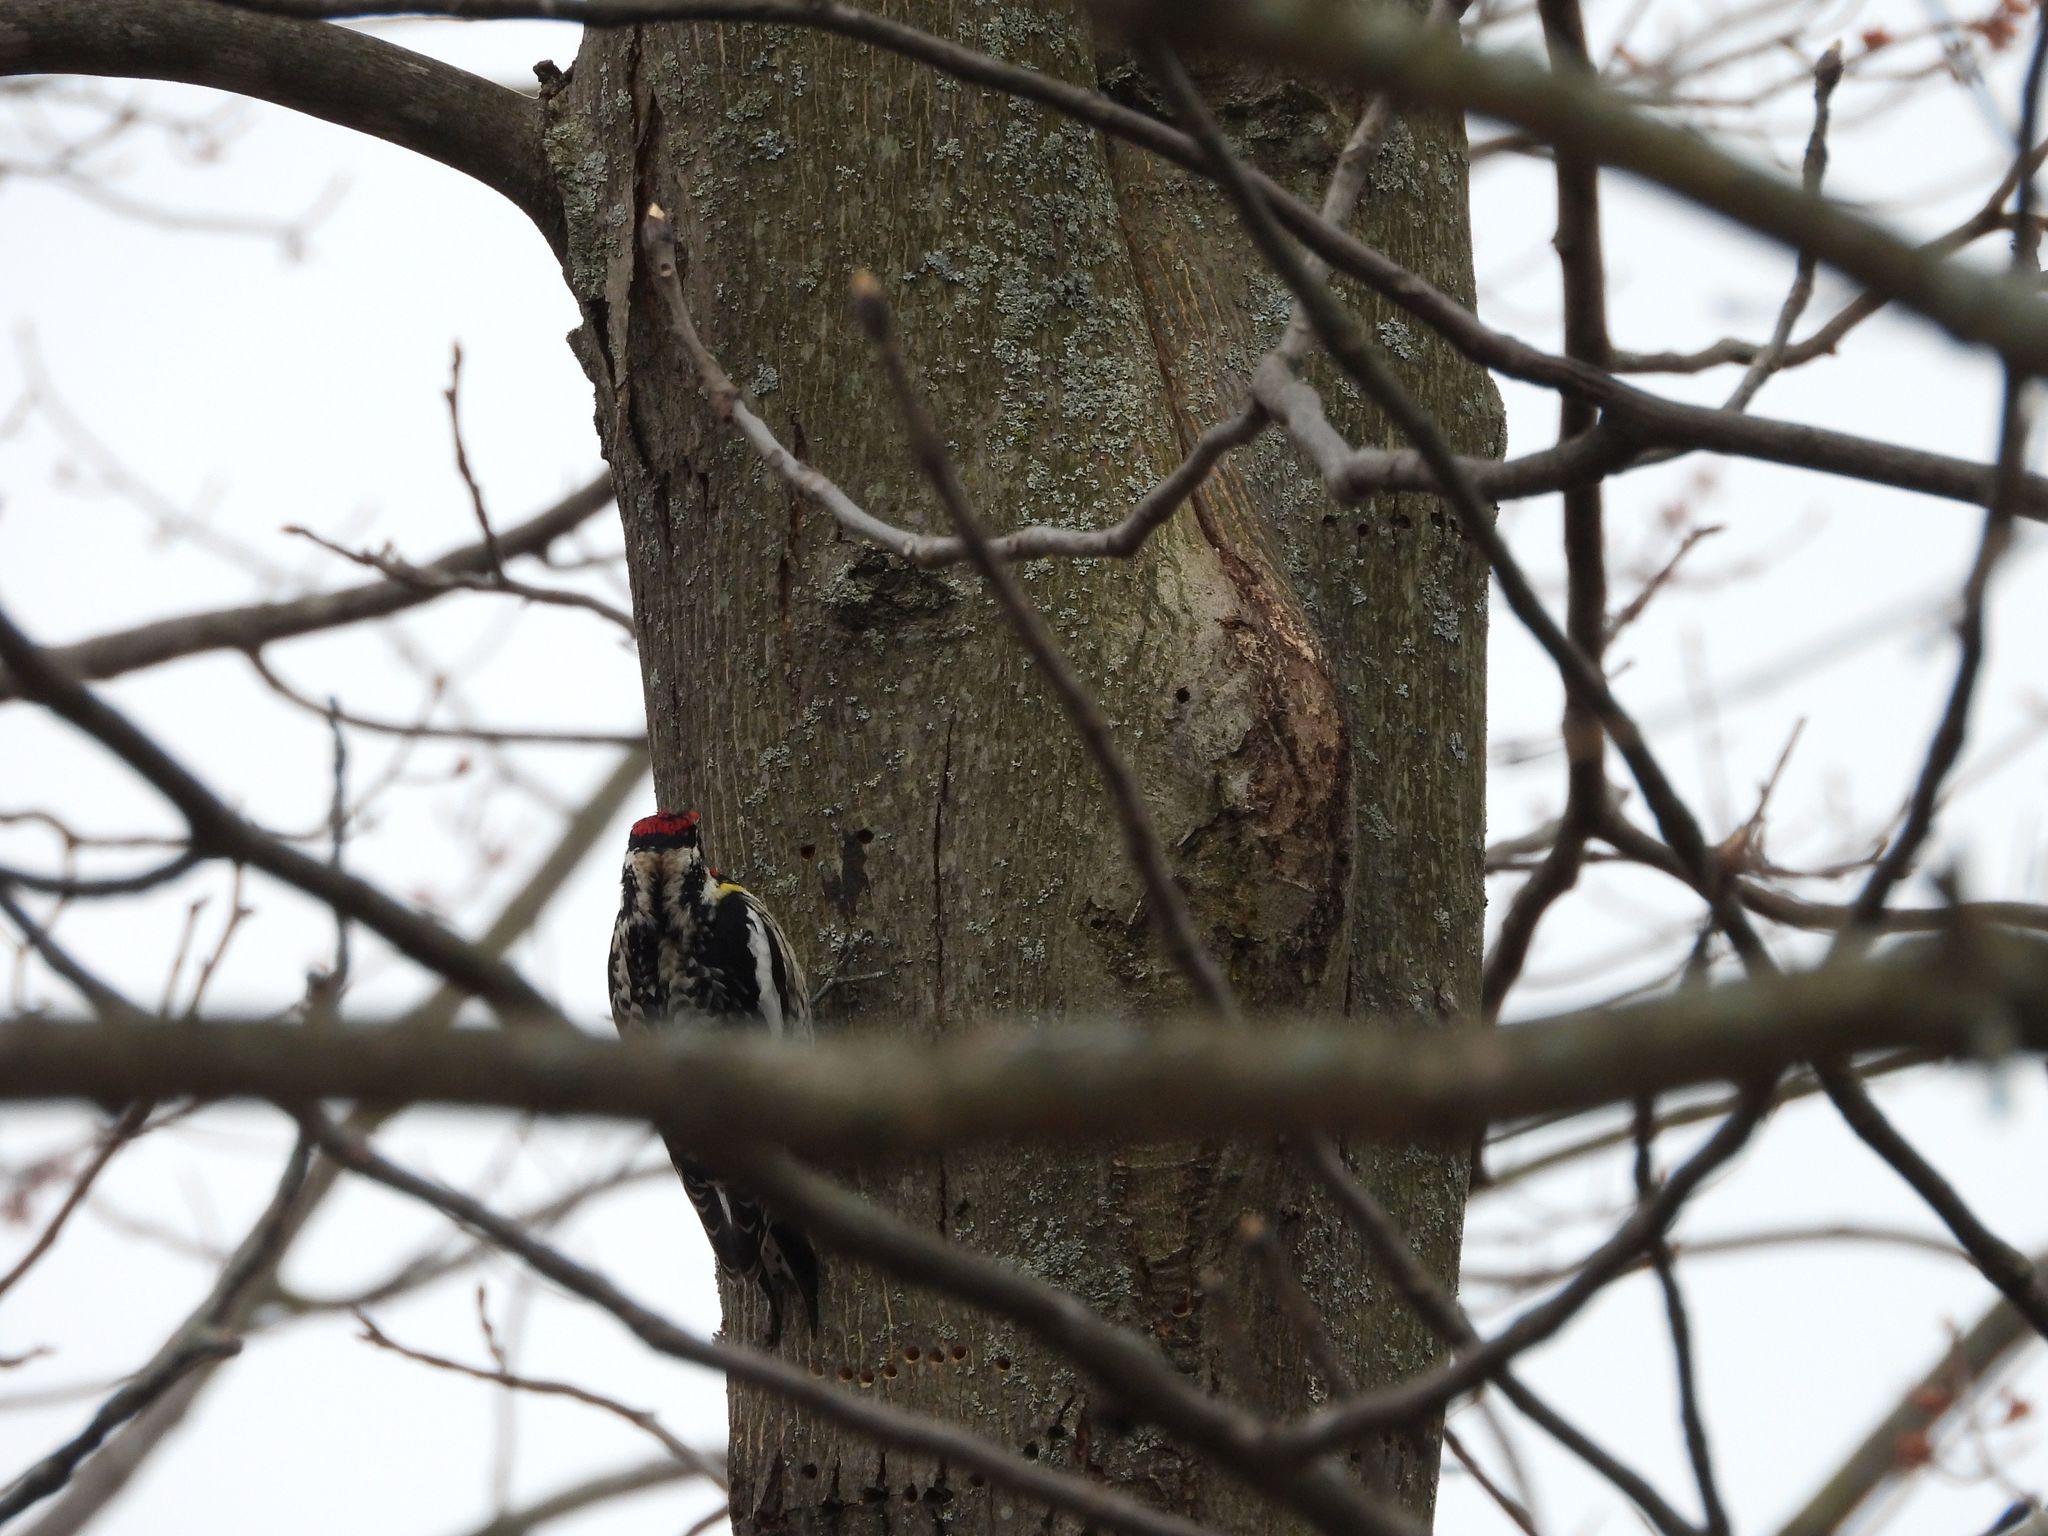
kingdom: Animalia
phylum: Chordata
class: Aves
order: Piciformes
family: Picidae
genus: Sphyrapicus
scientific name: Sphyrapicus varius
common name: Yellow-bellied sapsucker
